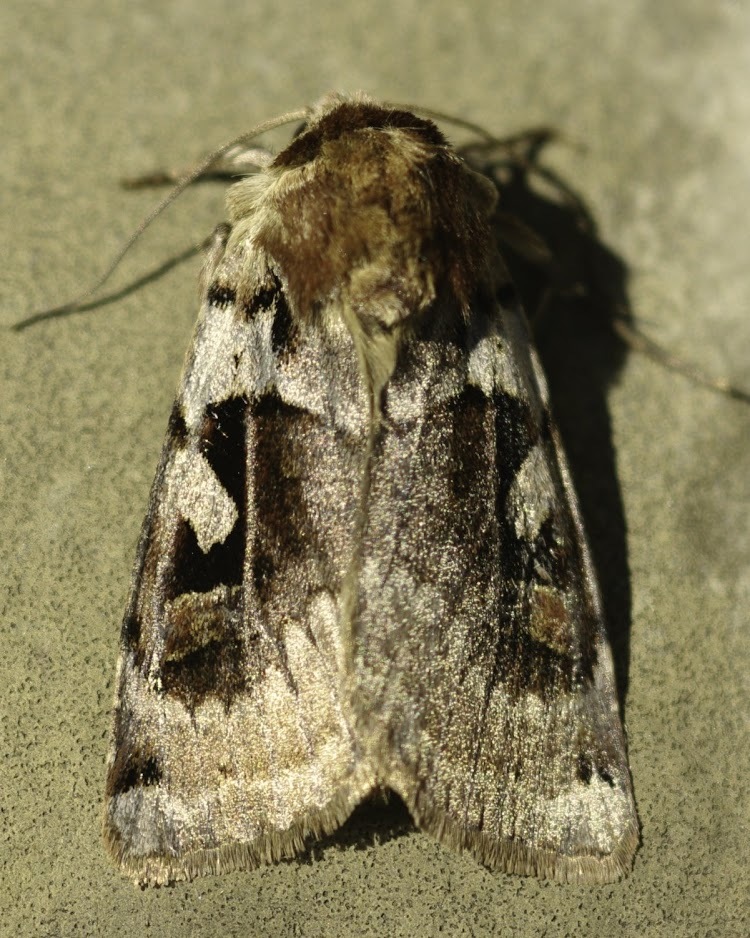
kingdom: Animalia
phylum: Arthropoda
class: Insecta
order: Lepidoptera
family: Noctuidae
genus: Xestia
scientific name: Xestia wockei
